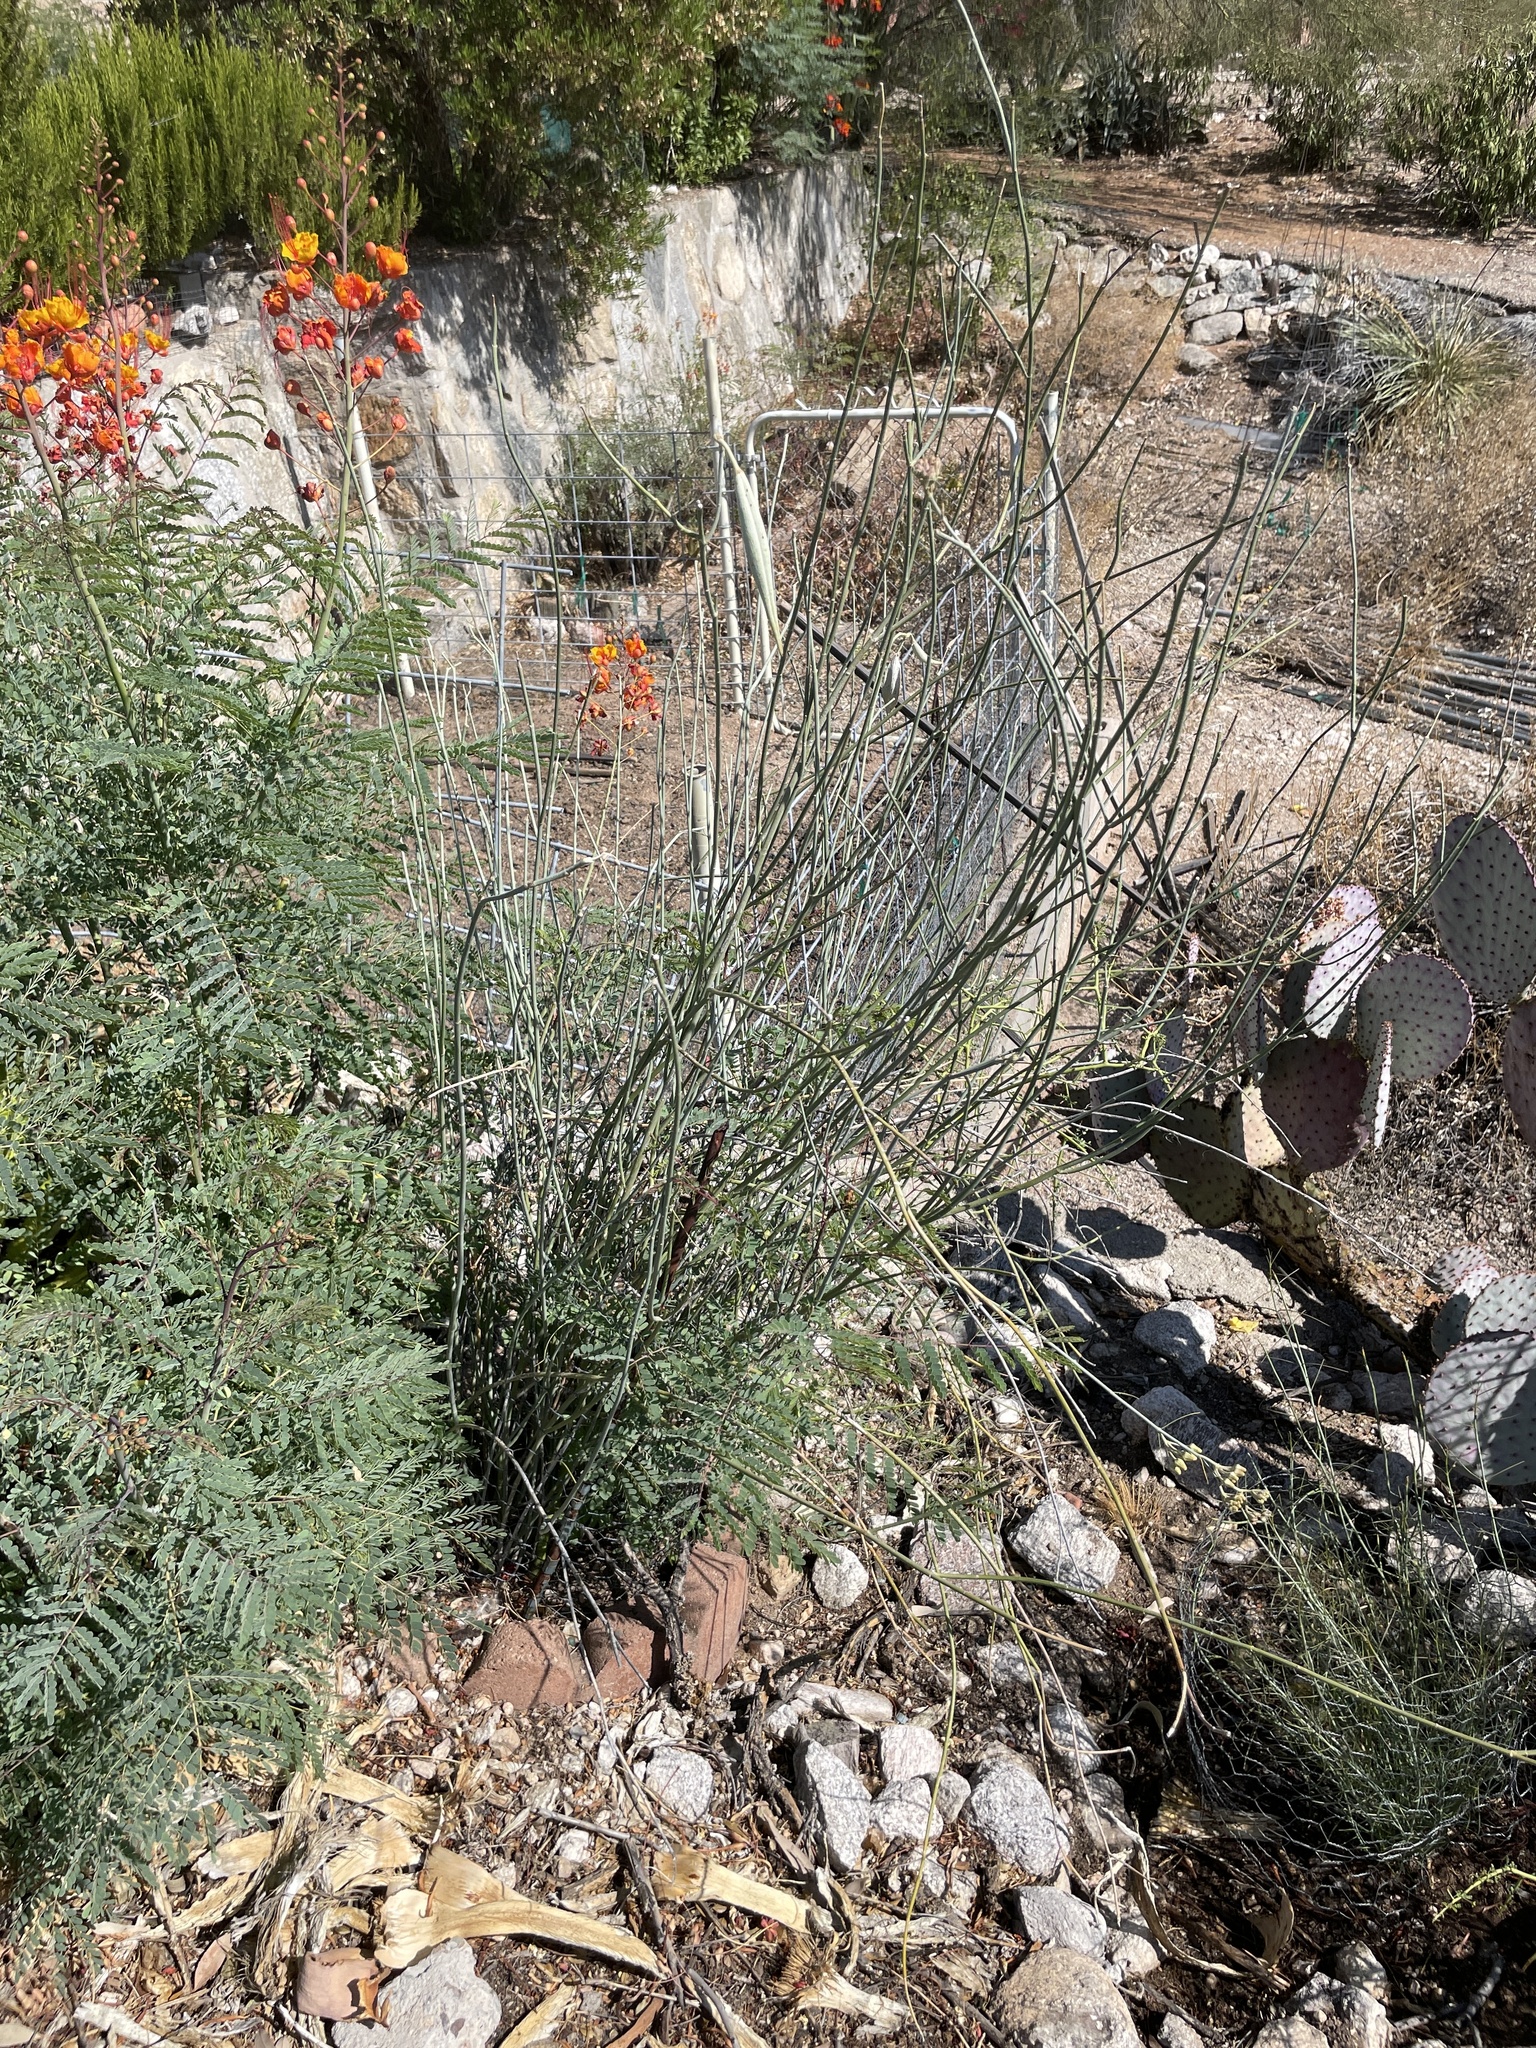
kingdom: Animalia
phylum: Arthropoda
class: Insecta
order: Hemiptera
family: Flatidae
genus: Flatormenis
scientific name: Flatormenis saucia
